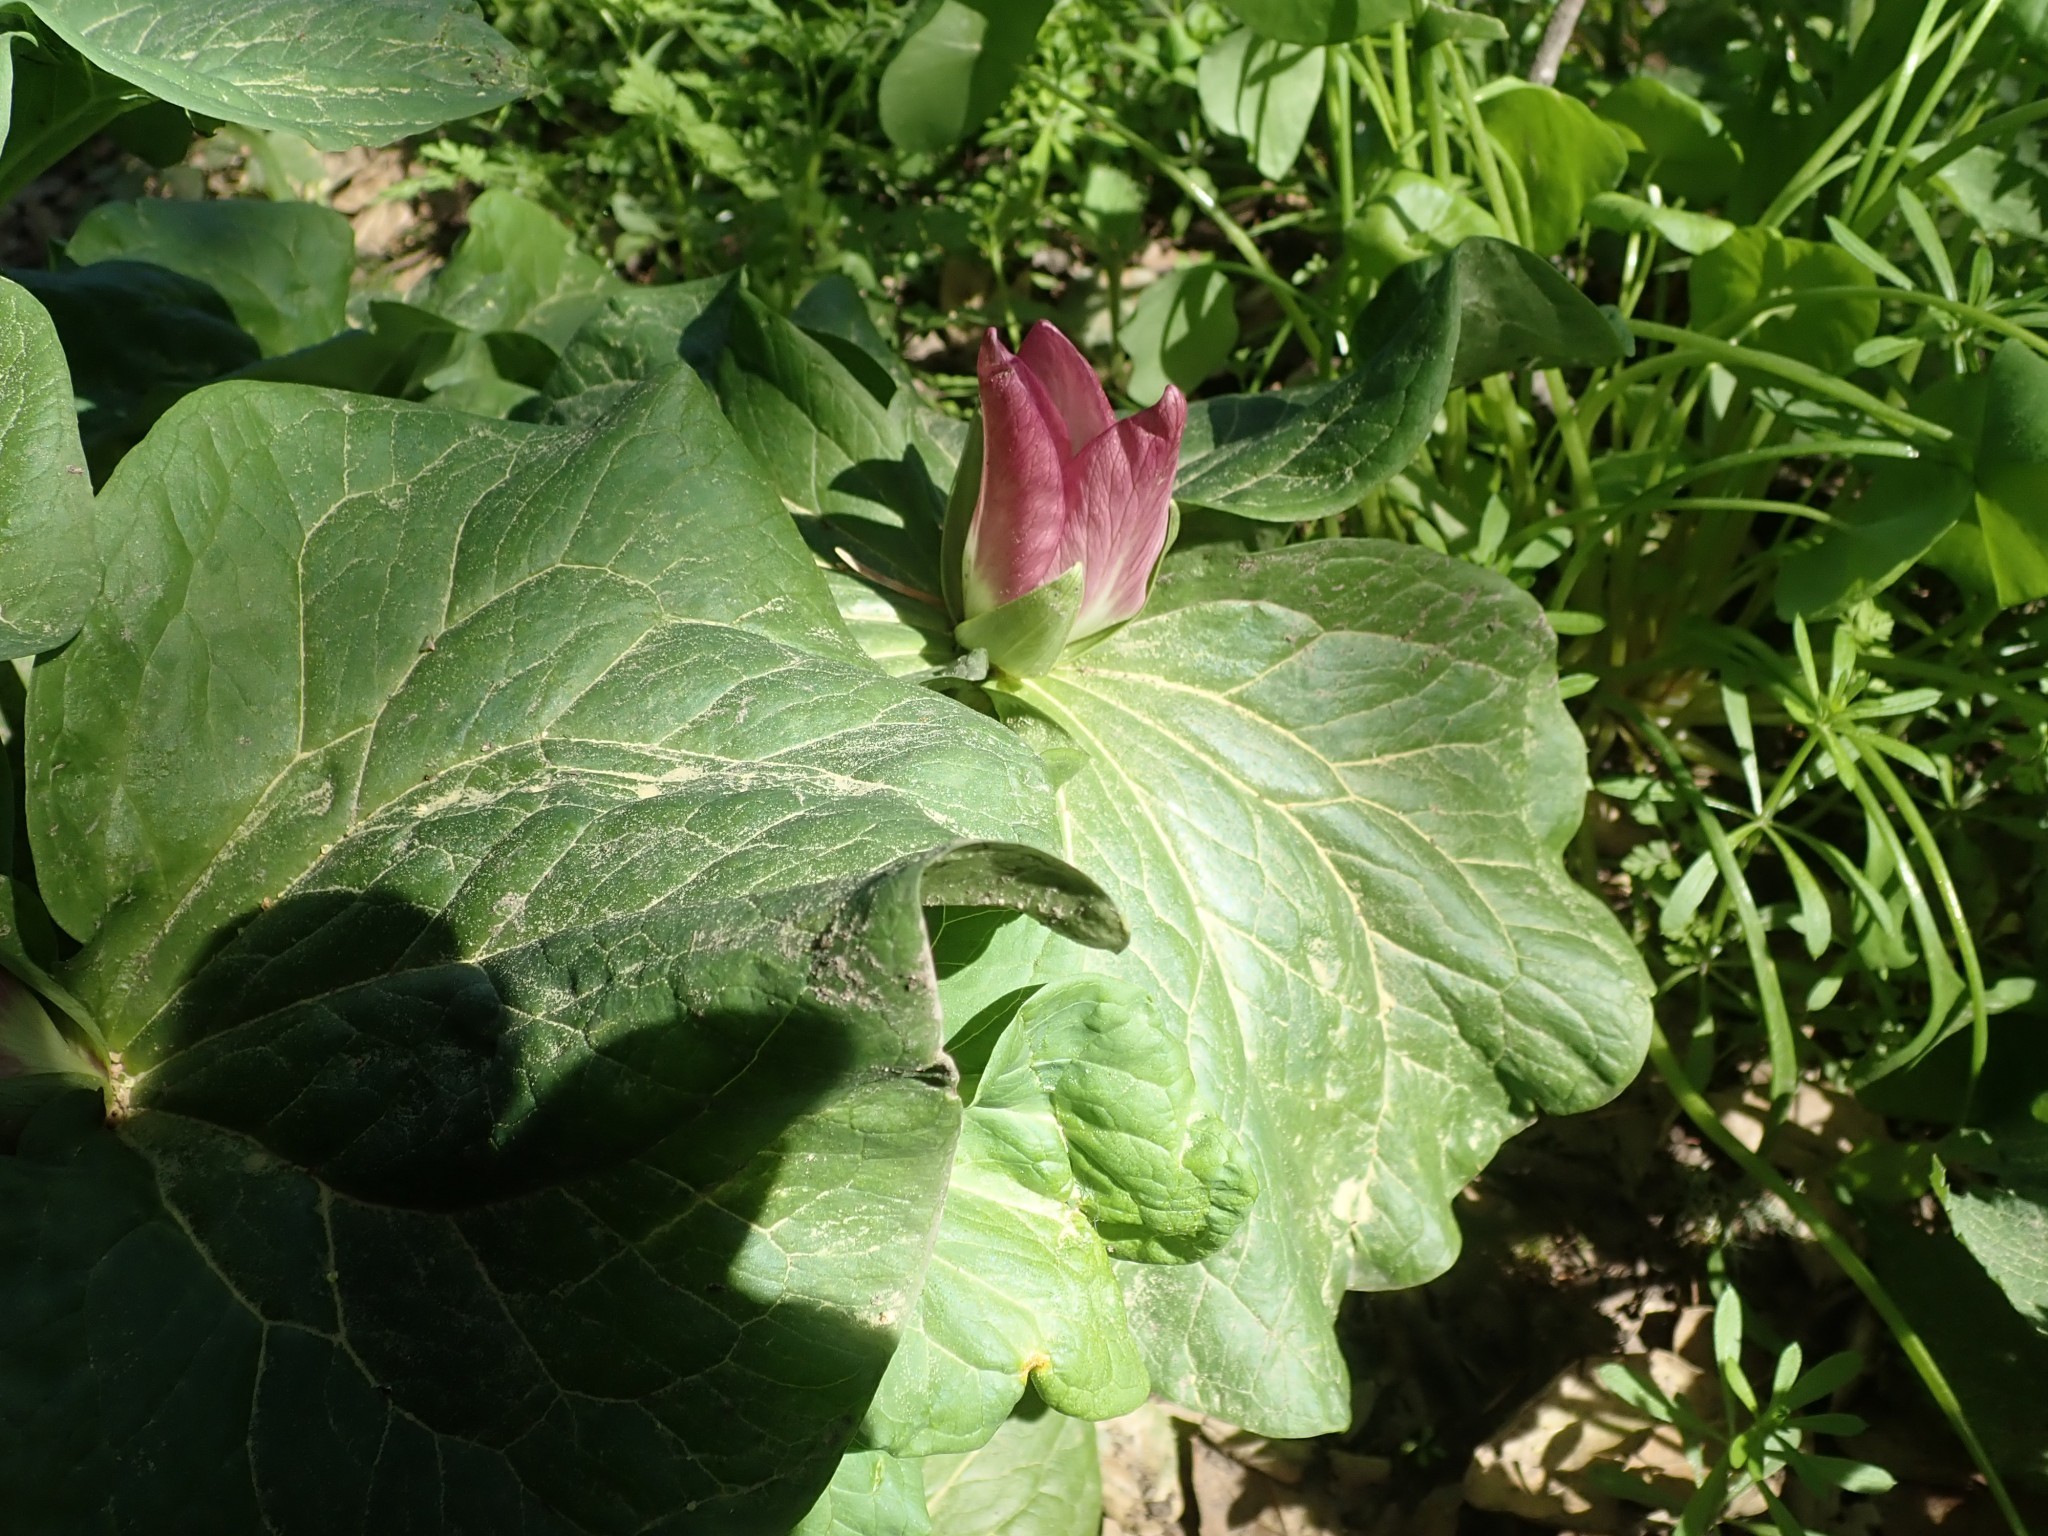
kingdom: Plantae
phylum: Tracheophyta
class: Liliopsida
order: Liliales
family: Melanthiaceae
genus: Trillium
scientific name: Trillium chloropetalum
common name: Giant trillium
